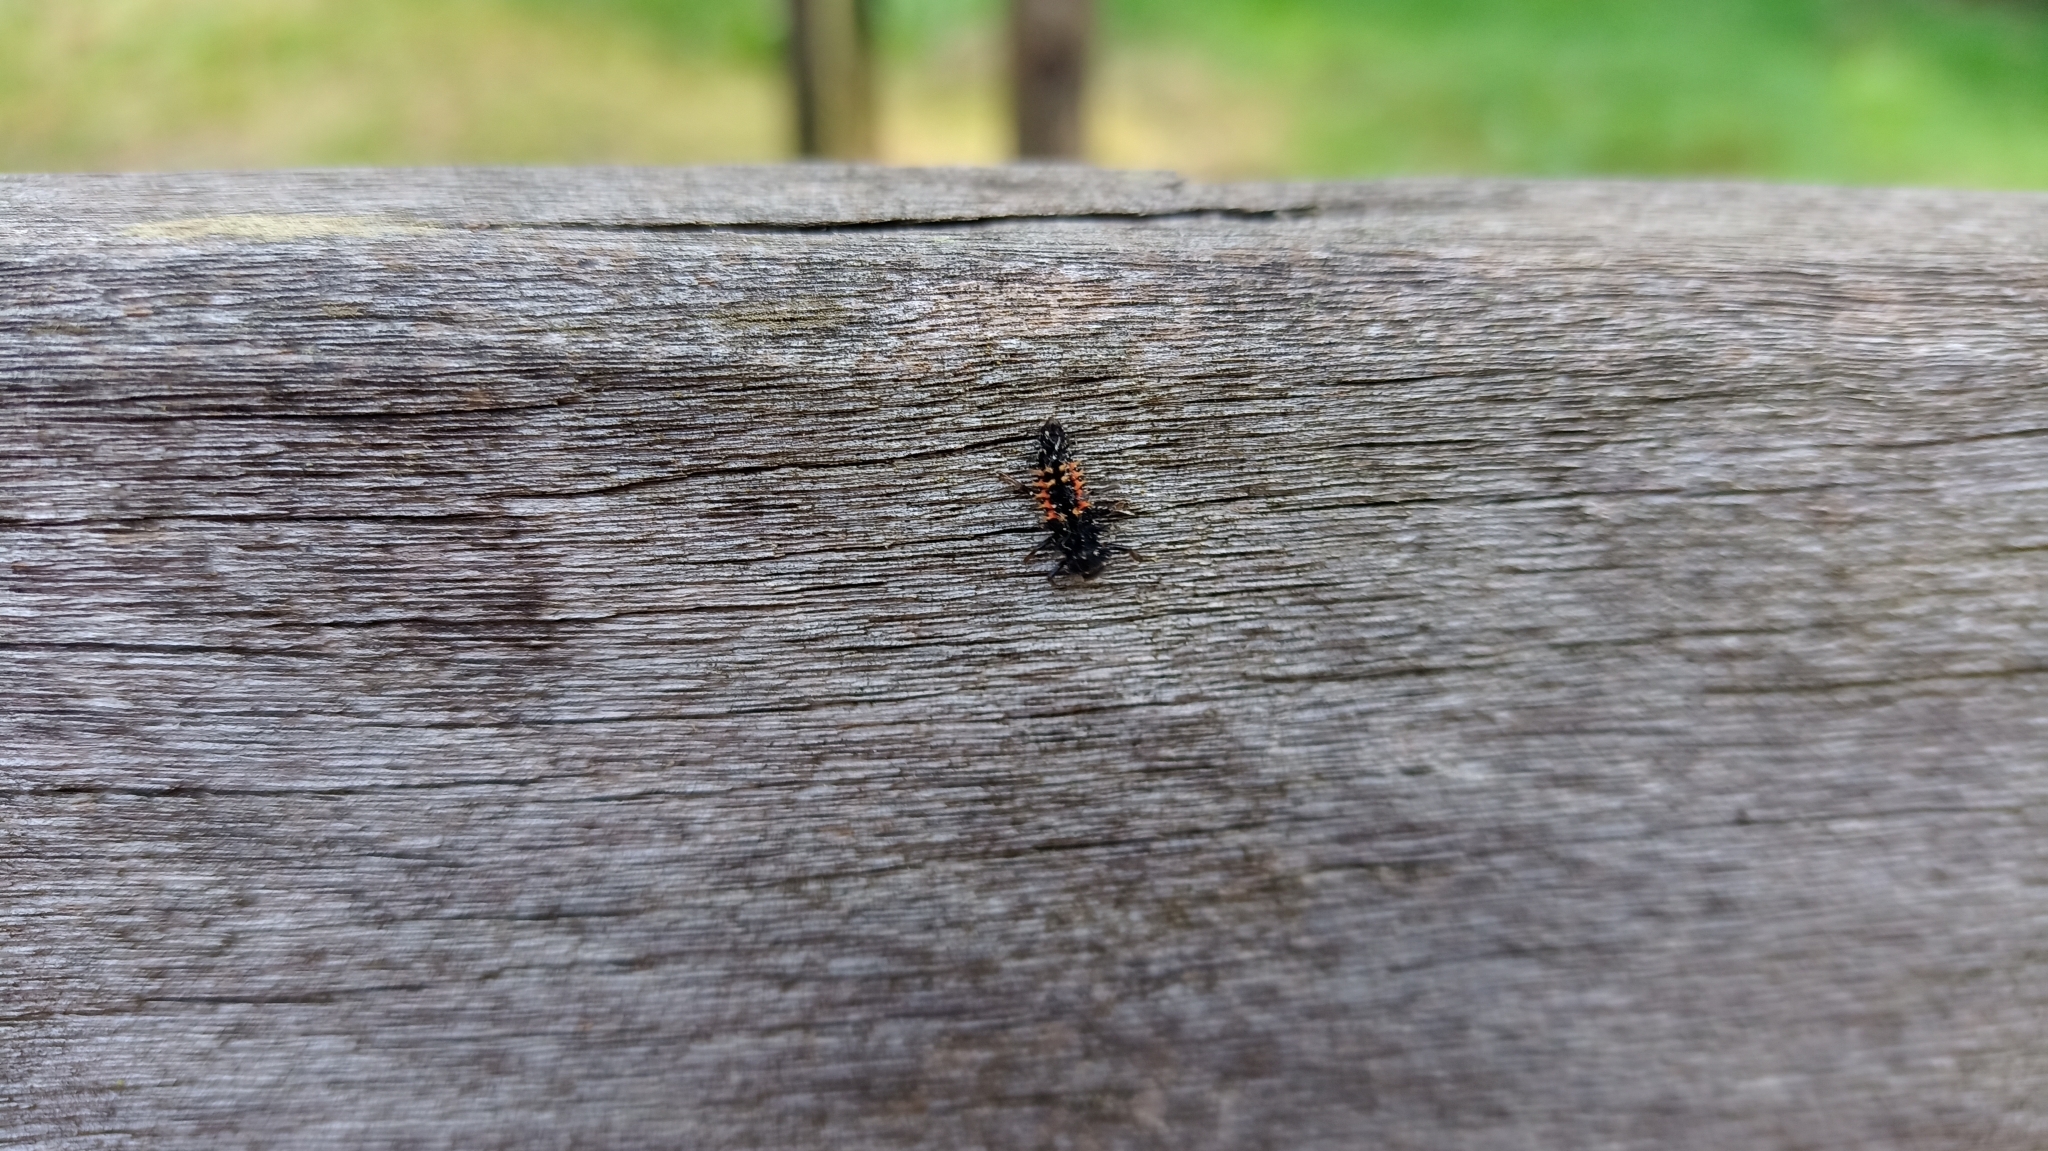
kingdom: Animalia
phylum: Arthropoda
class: Insecta
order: Coleoptera
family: Coccinellidae
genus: Harmonia
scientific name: Harmonia axyridis
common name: Harlequin ladybird
